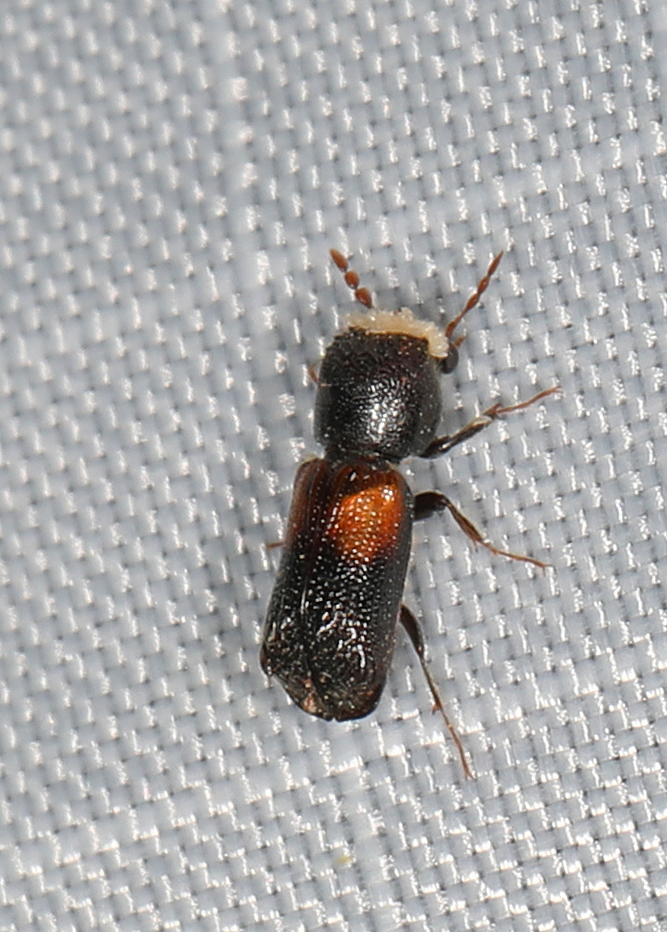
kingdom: Animalia
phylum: Arthropoda
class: Insecta
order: Coleoptera
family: Bostrichidae
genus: Xylobiops
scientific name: Xylobiops basilaris
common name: Red-shouldered bostrichid
